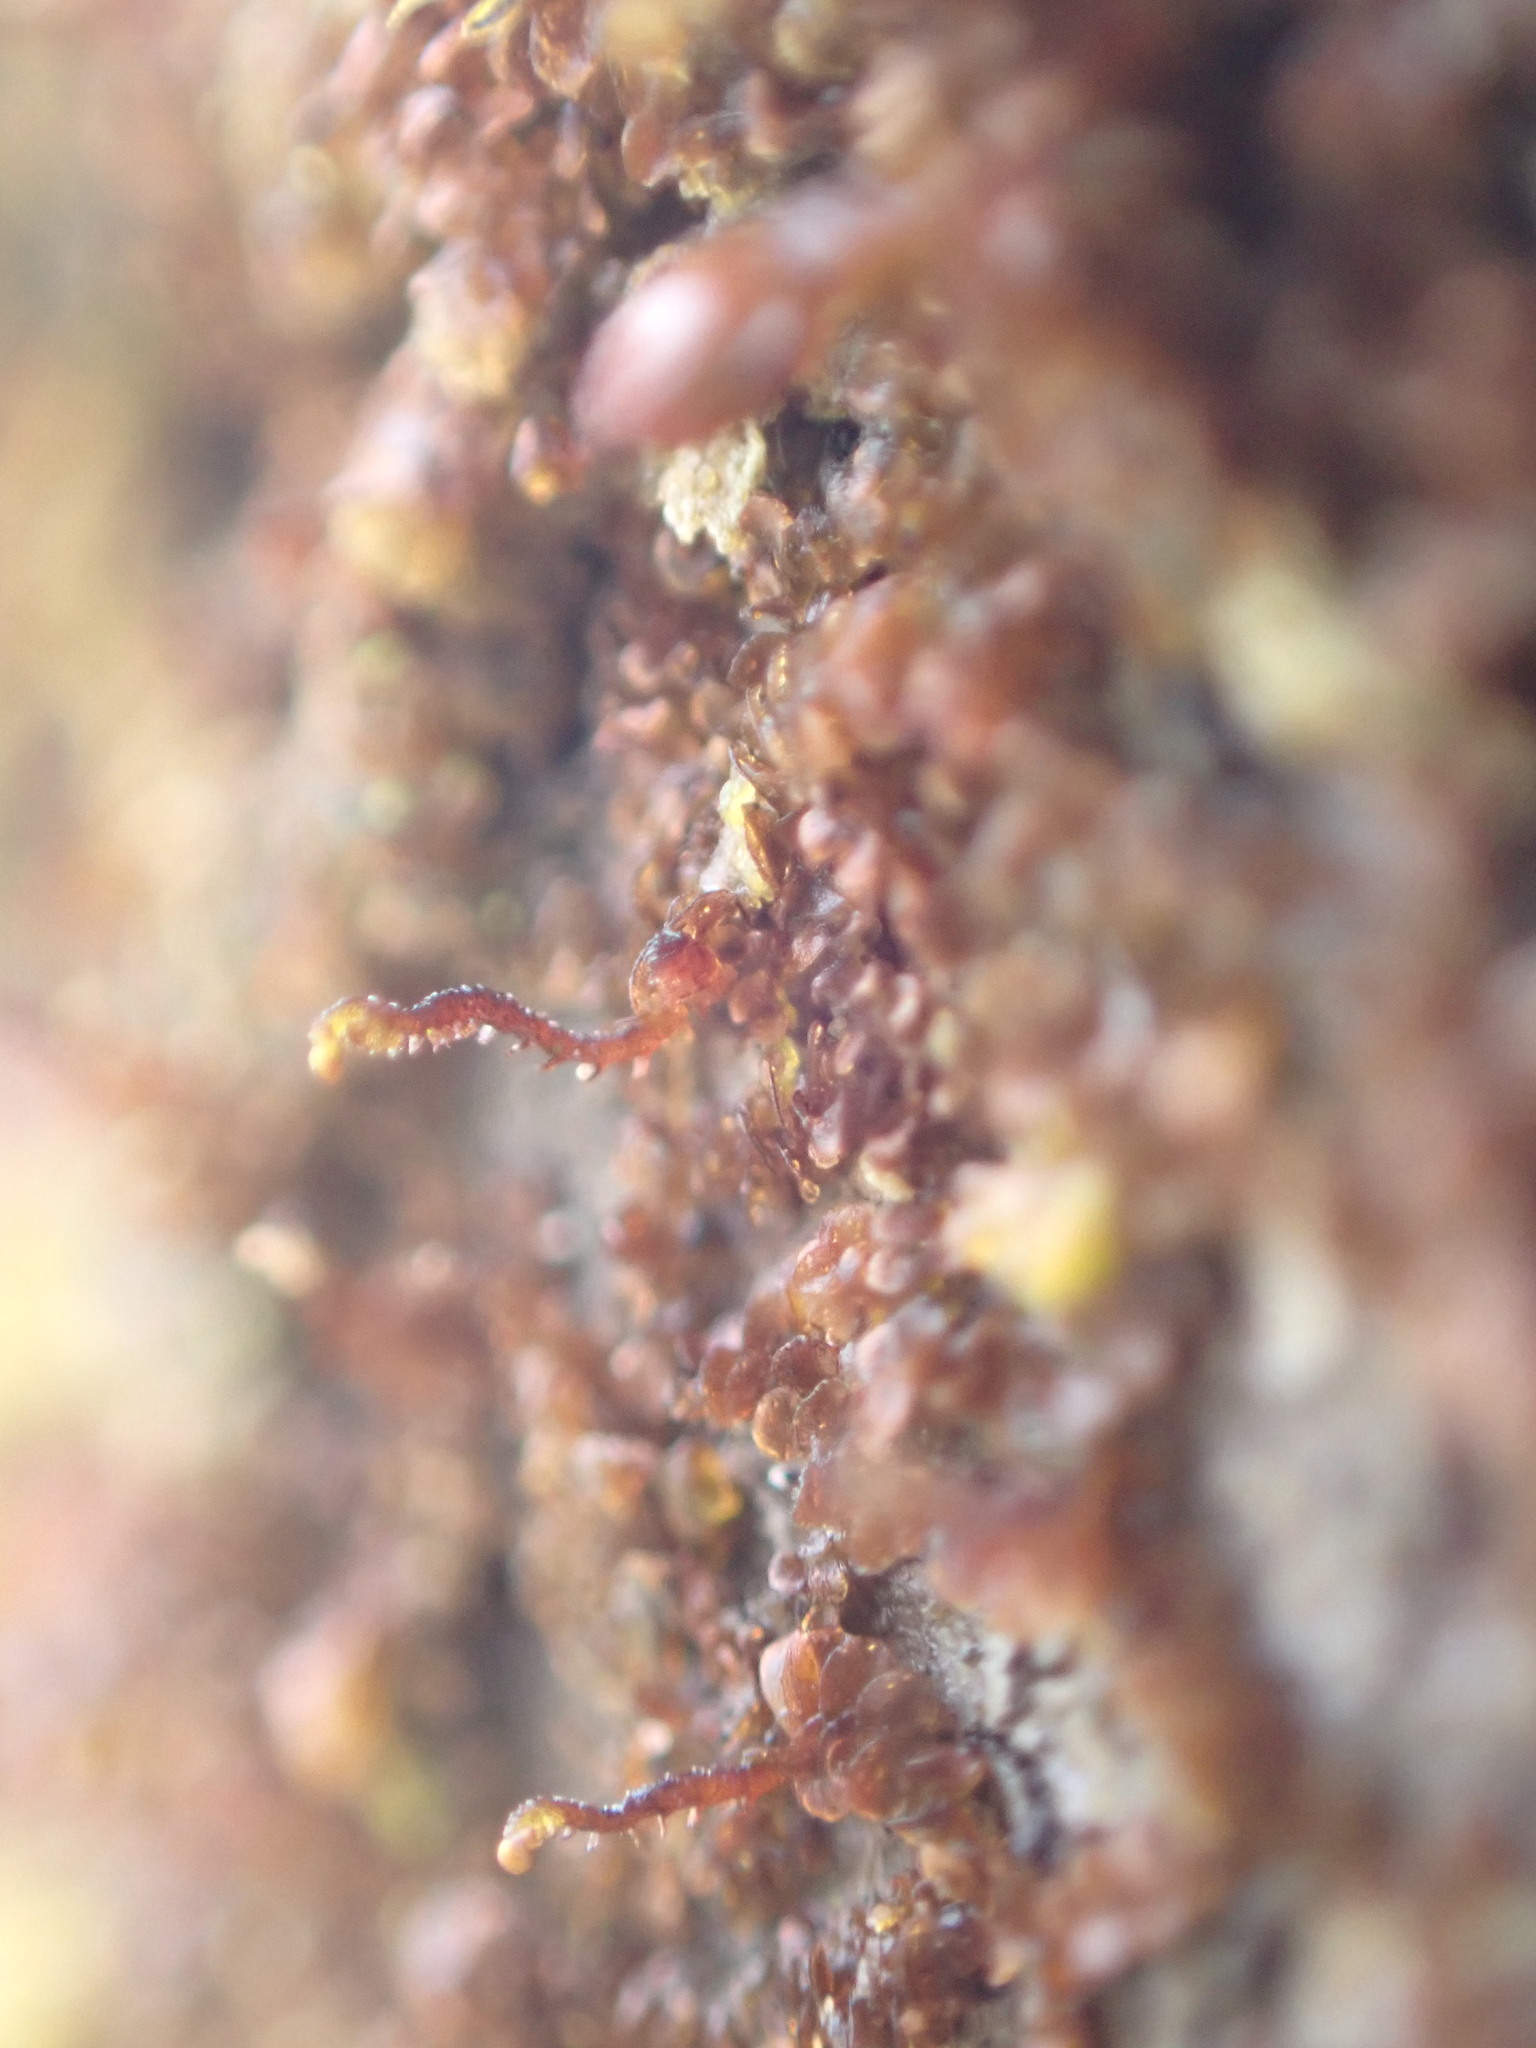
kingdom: Plantae
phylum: Marchantiophyta
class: Jungermanniopsida
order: Porellales
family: Frullaniaceae
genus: Frullania
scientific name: Frullania bolanderi
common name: Bolander s scalewort
